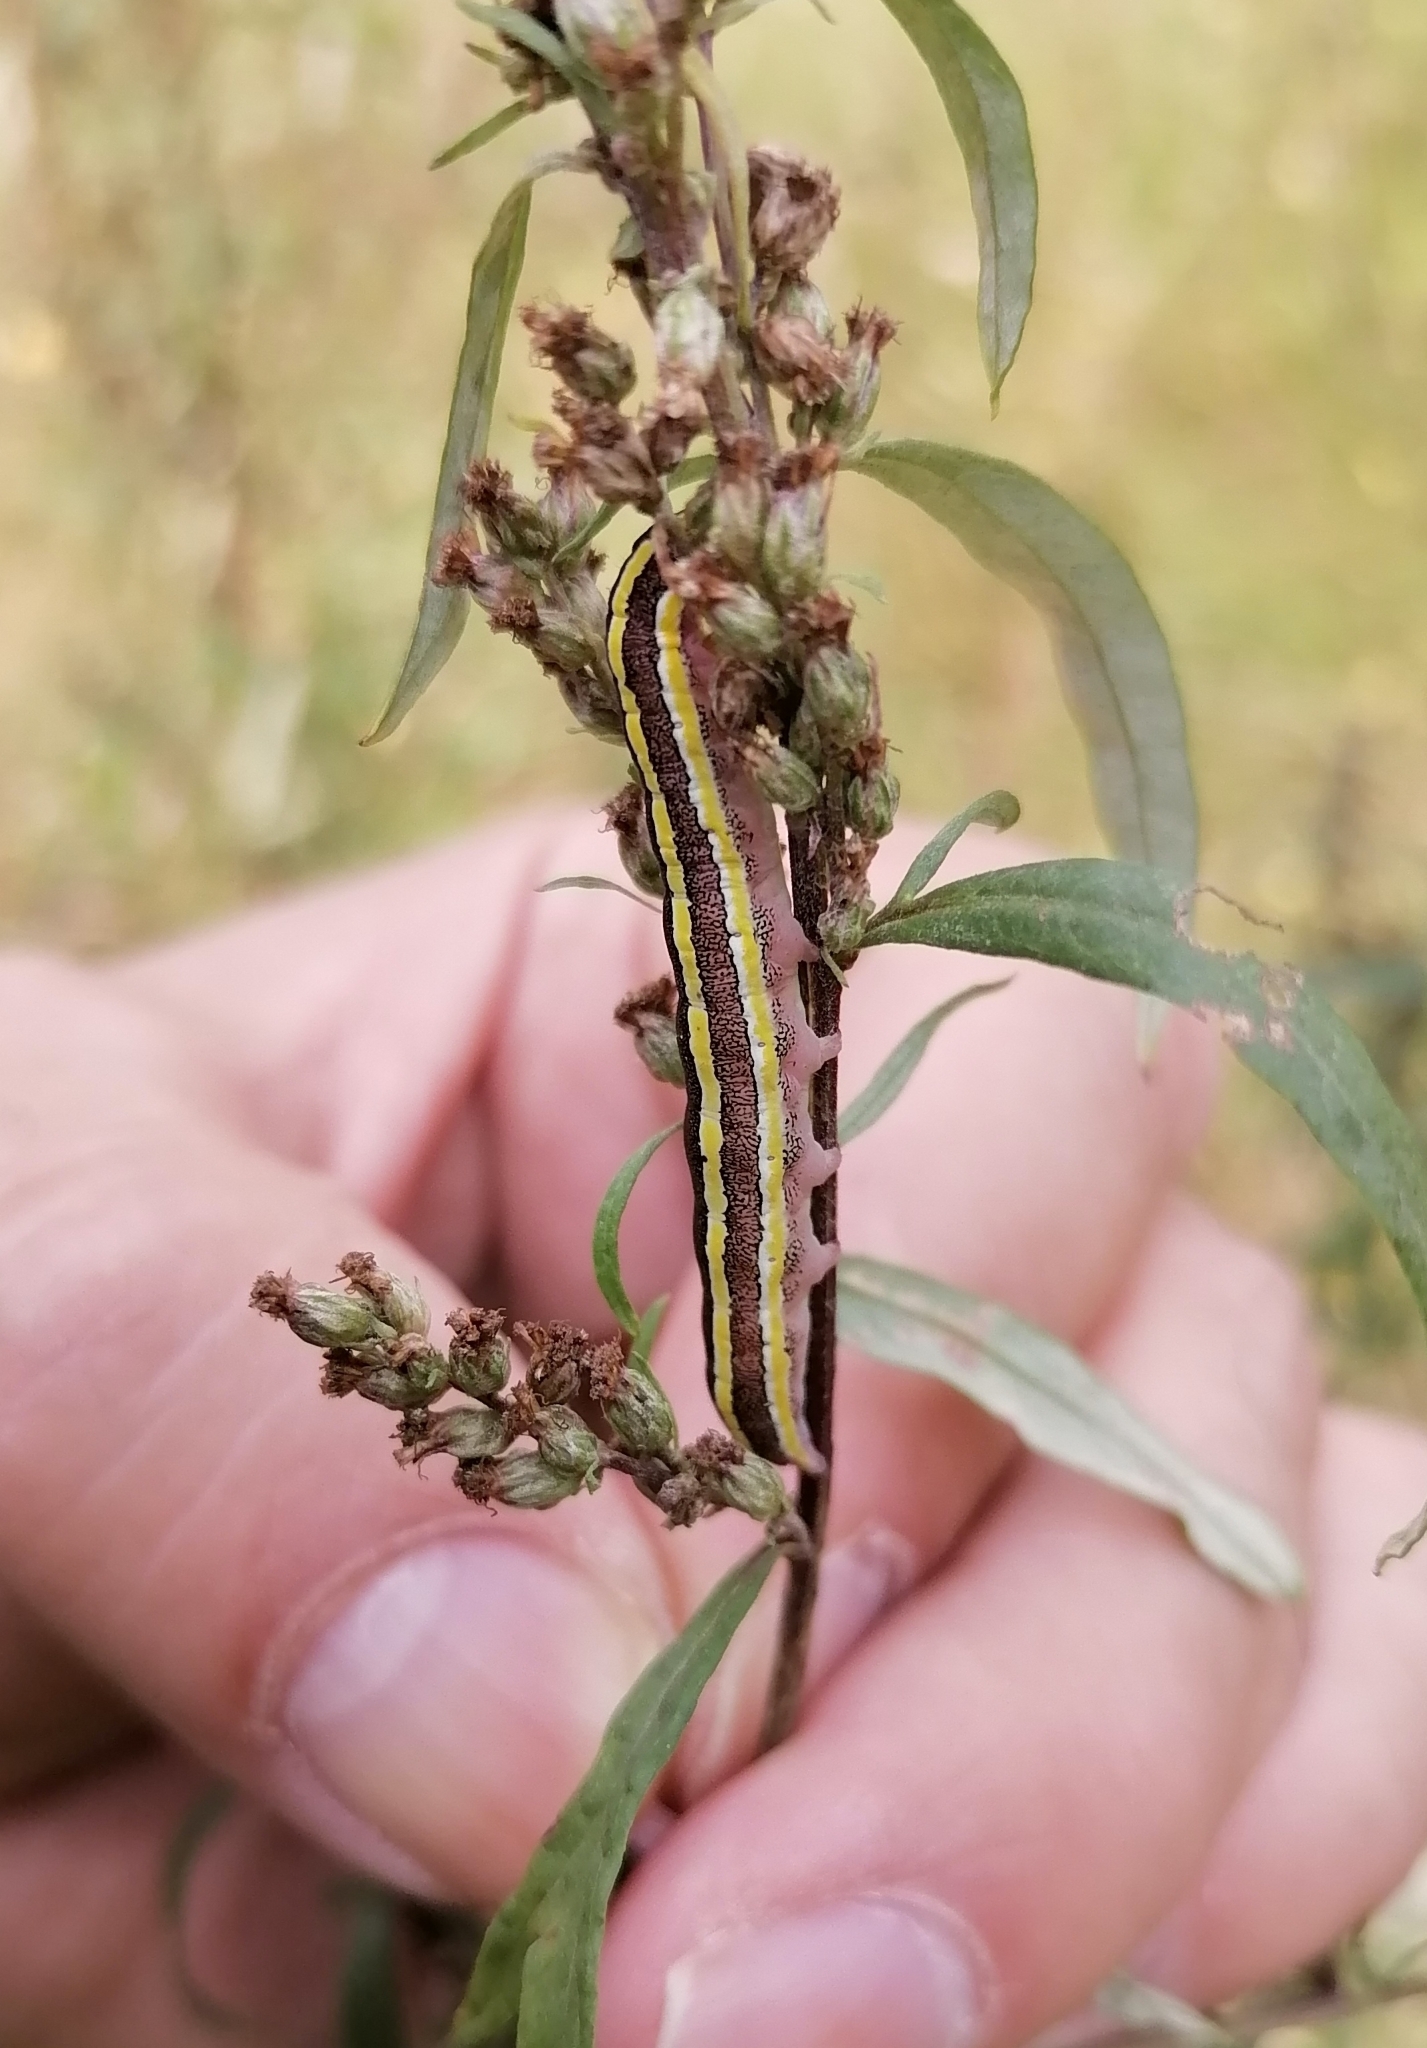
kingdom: Animalia
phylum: Arthropoda
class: Insecta
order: Lepidoptera
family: Noctuidae
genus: Ceramica
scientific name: Ceramica pisi
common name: Broom moth
